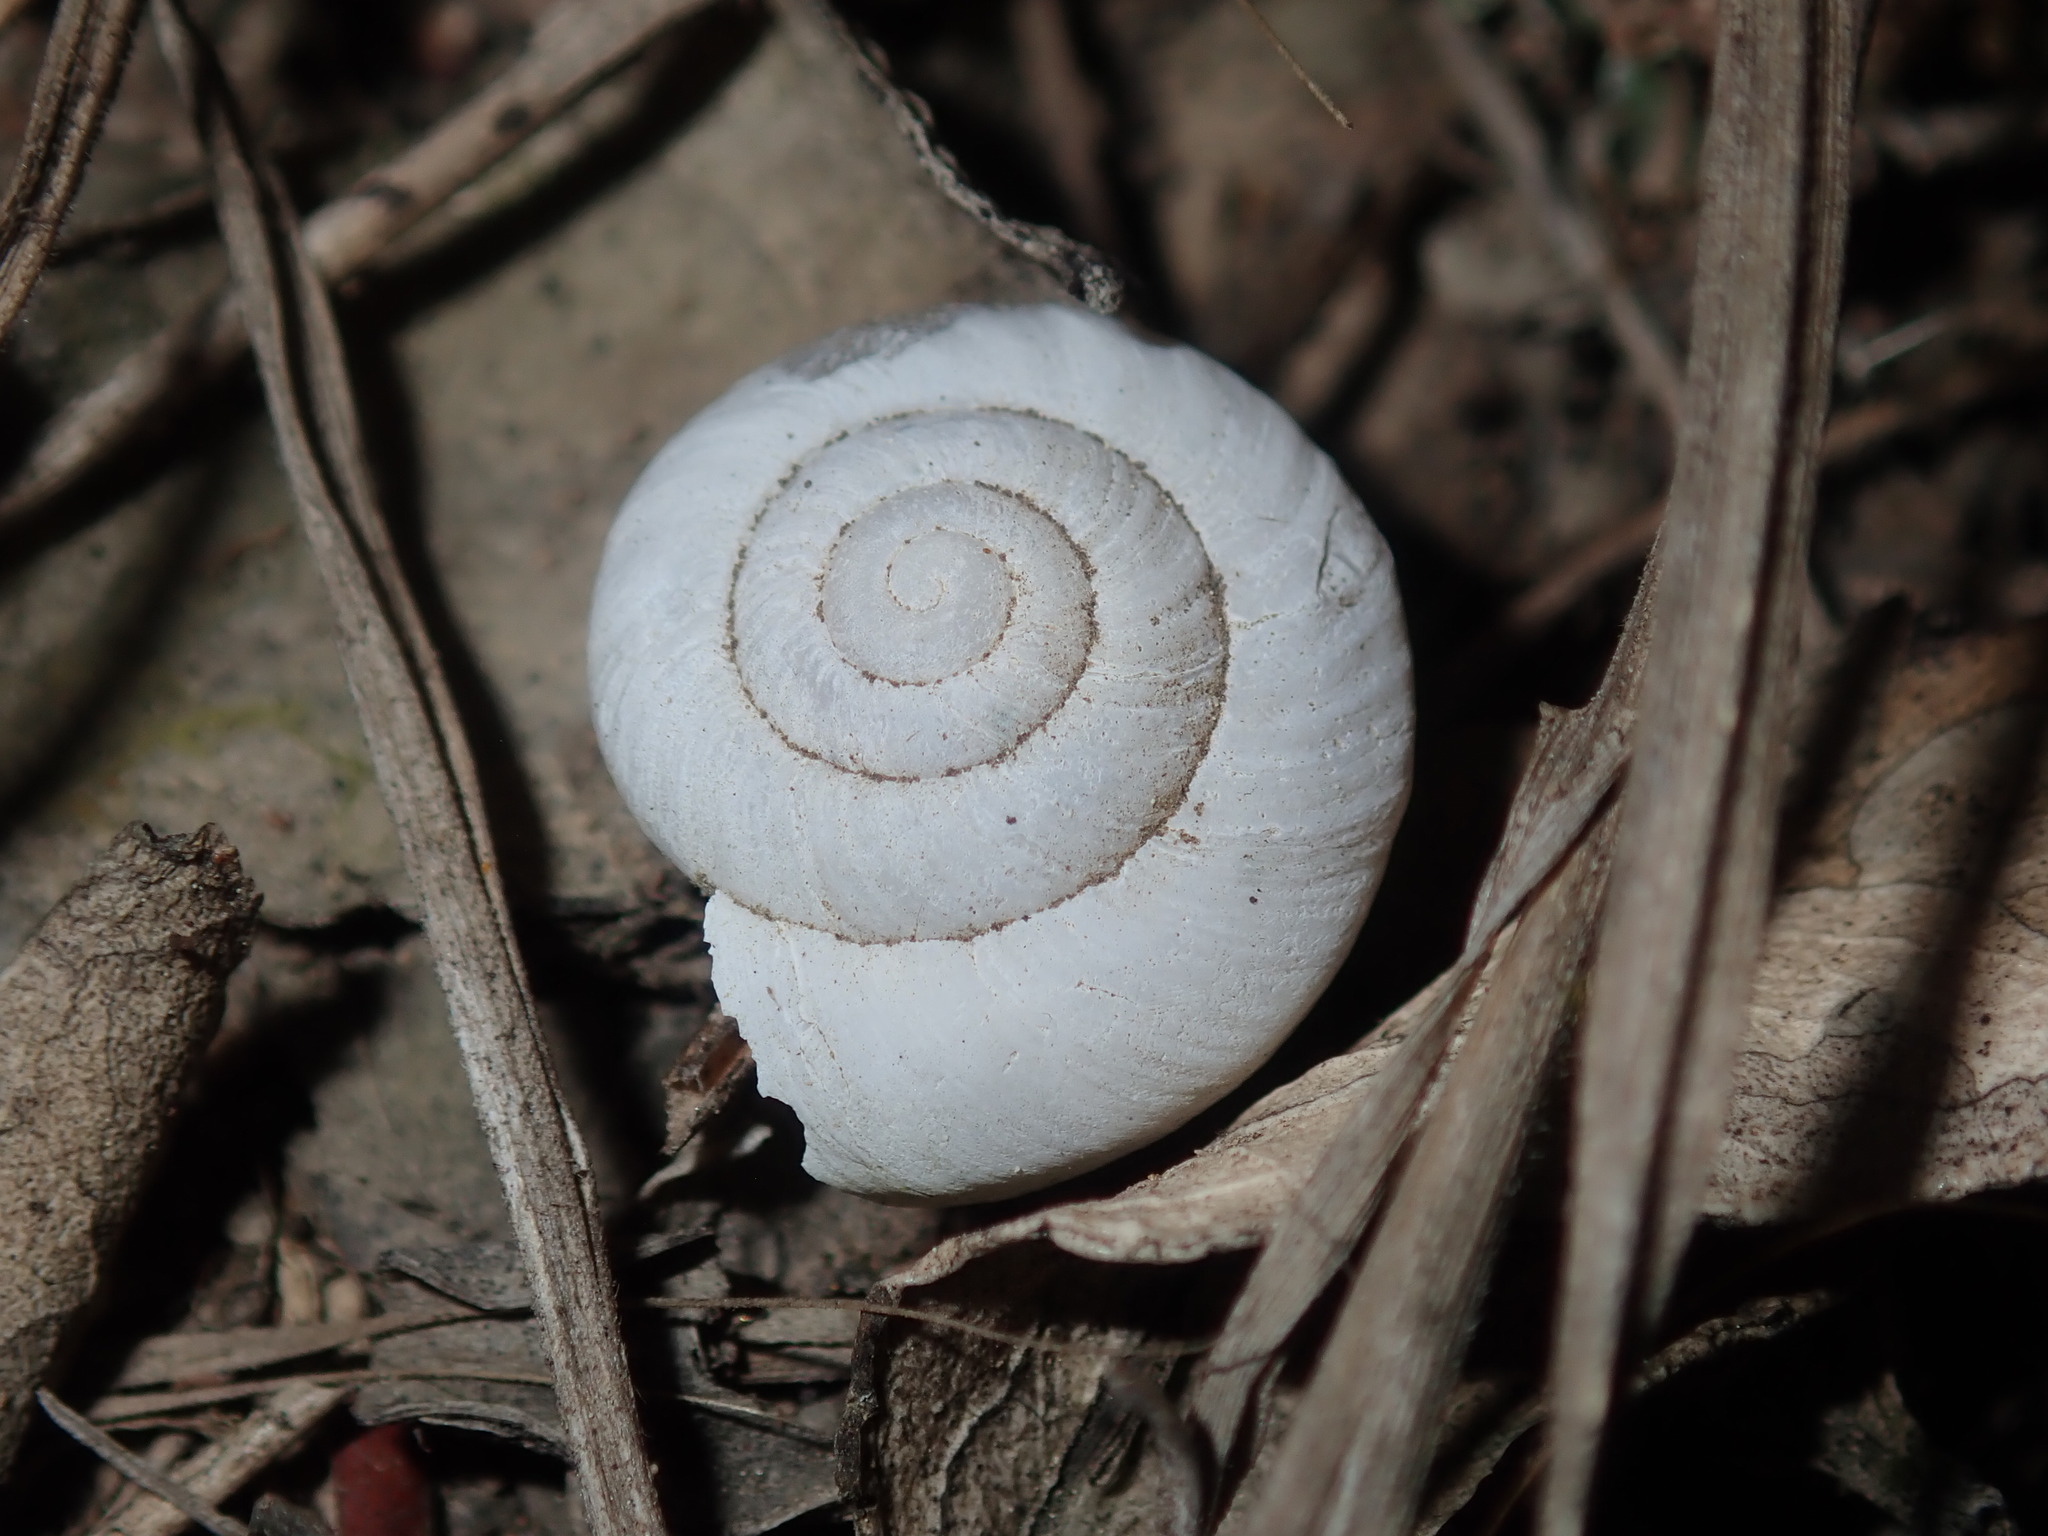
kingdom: Animalia
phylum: Mollusca
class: Gastropoda
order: Stylommatophora
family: Camaenidae
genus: Sauroconcha
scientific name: Sauroconcha sheai
